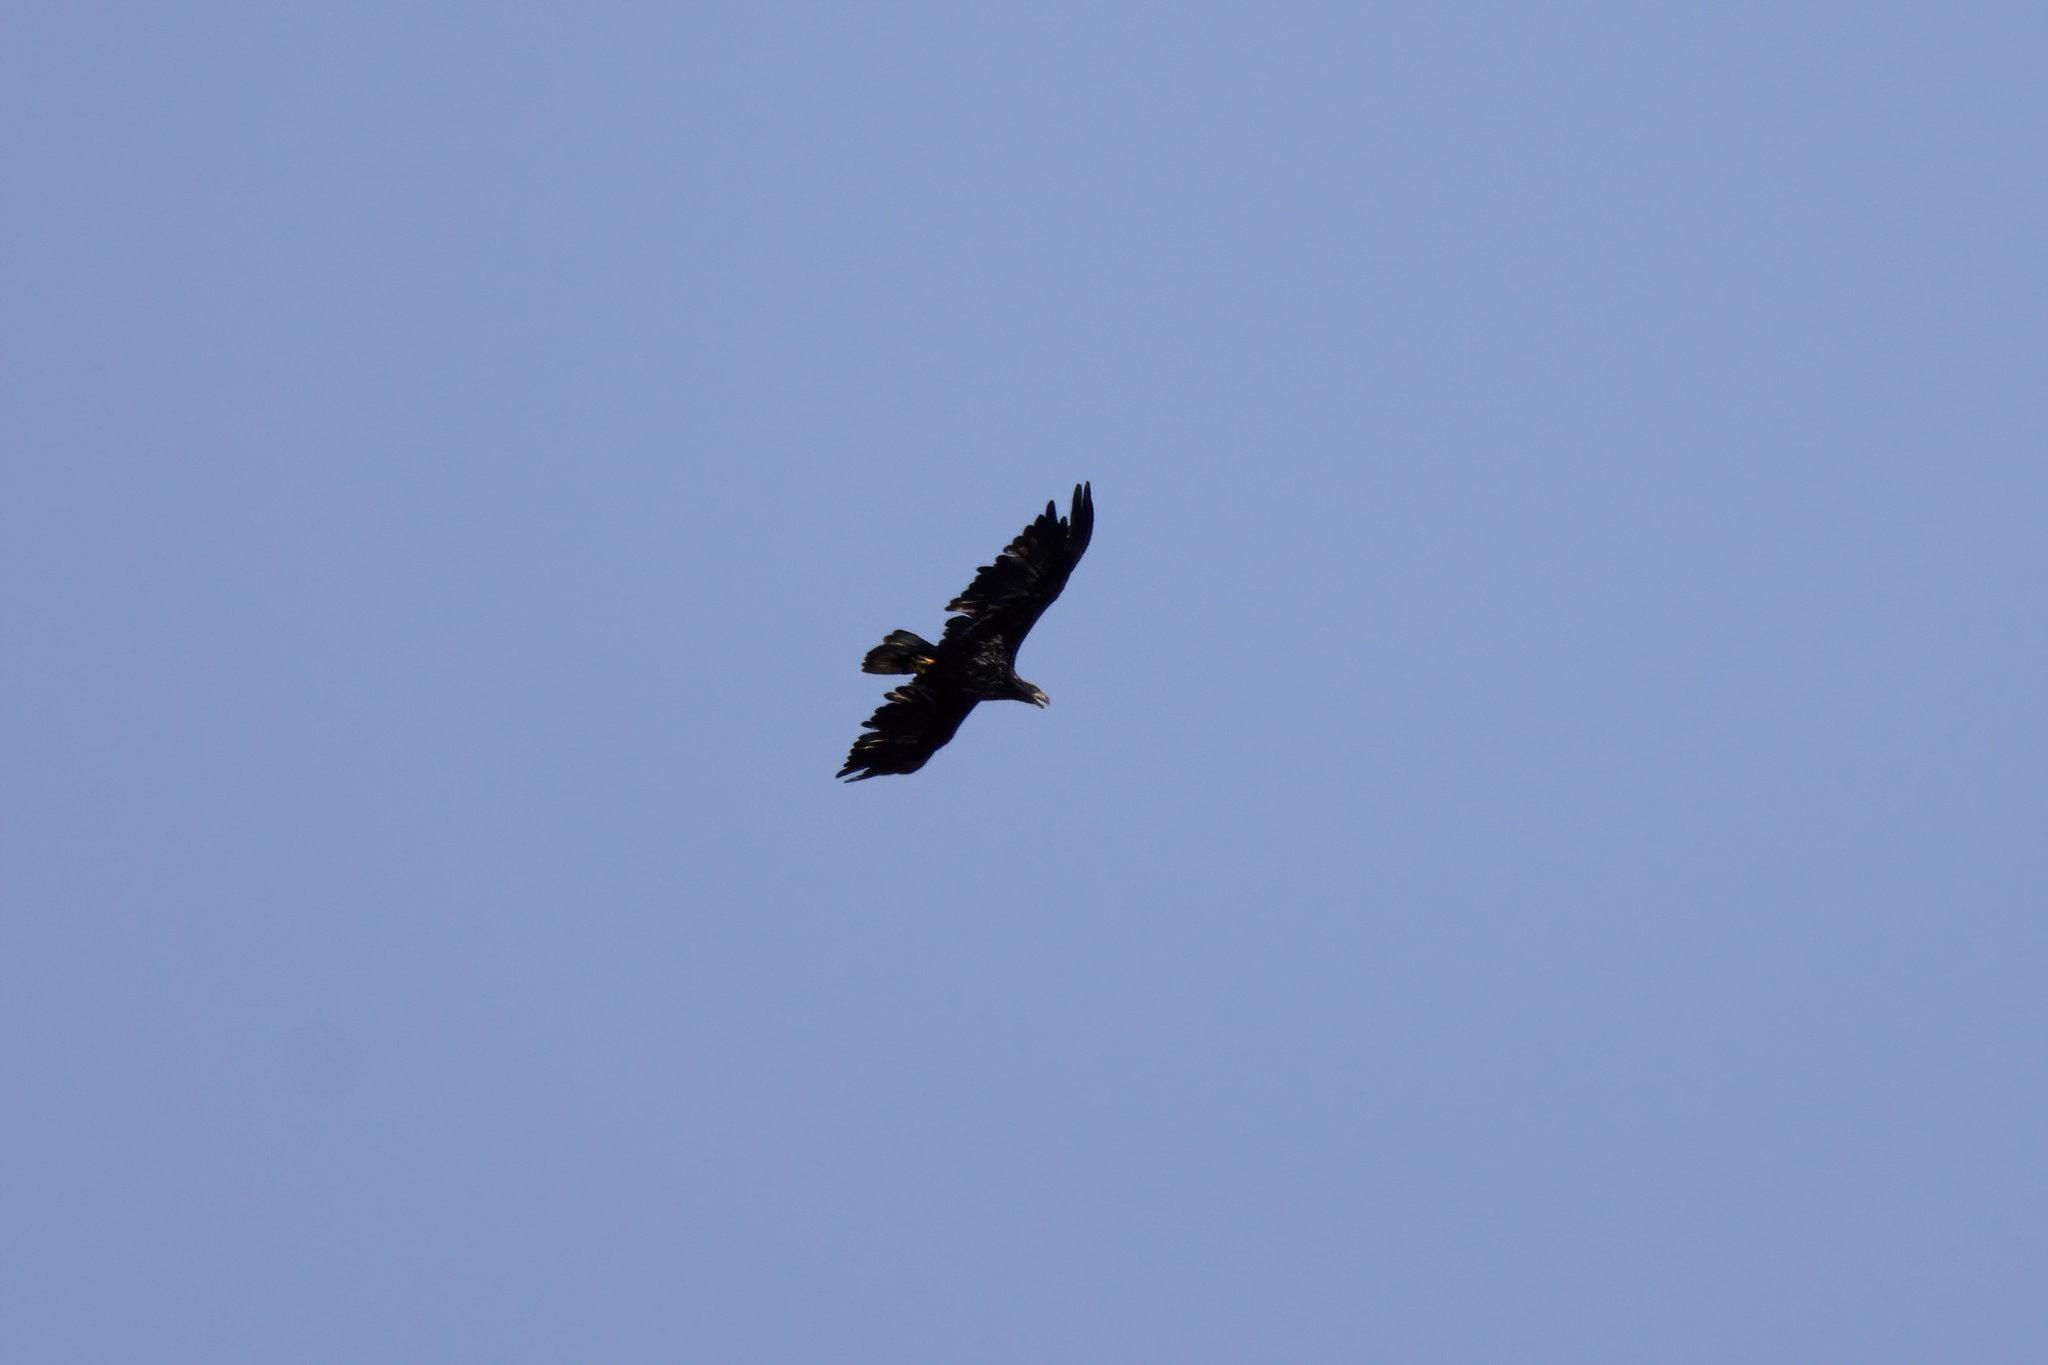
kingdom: Animalia
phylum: Chordata
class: Aves
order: Accipitriformes
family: Accipitridae
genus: Haliaeetus
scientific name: Haliaeetus leucocephalus
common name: Bald eagle
